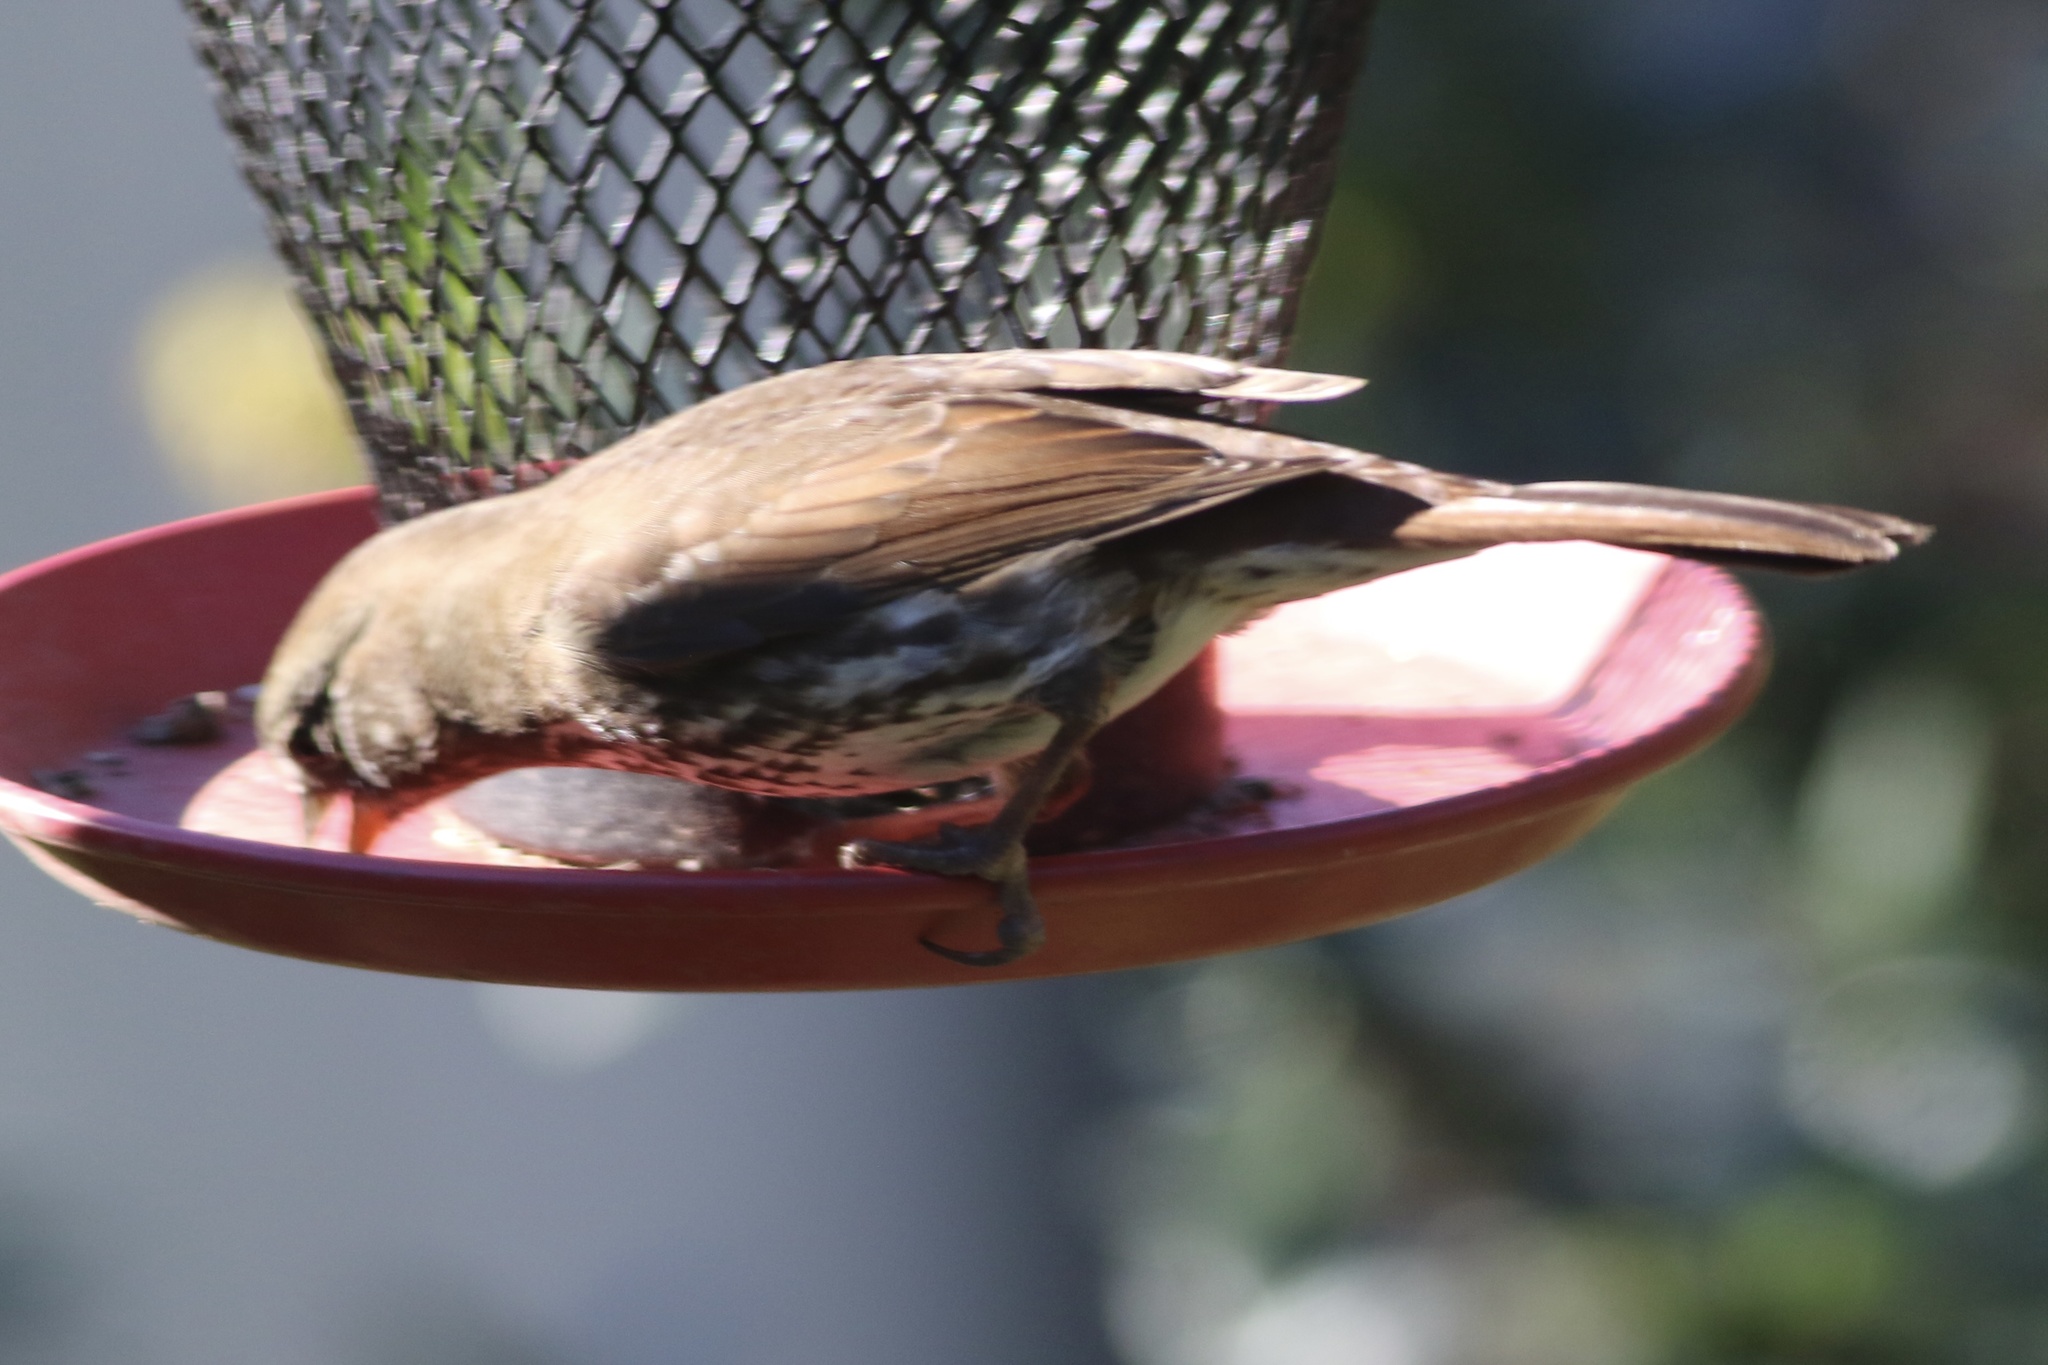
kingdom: Animalia
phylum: Chordata
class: Aves
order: Passeriformes
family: Passerellidae
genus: Passerella
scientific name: Passerella iliaca
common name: Fox sparrow
